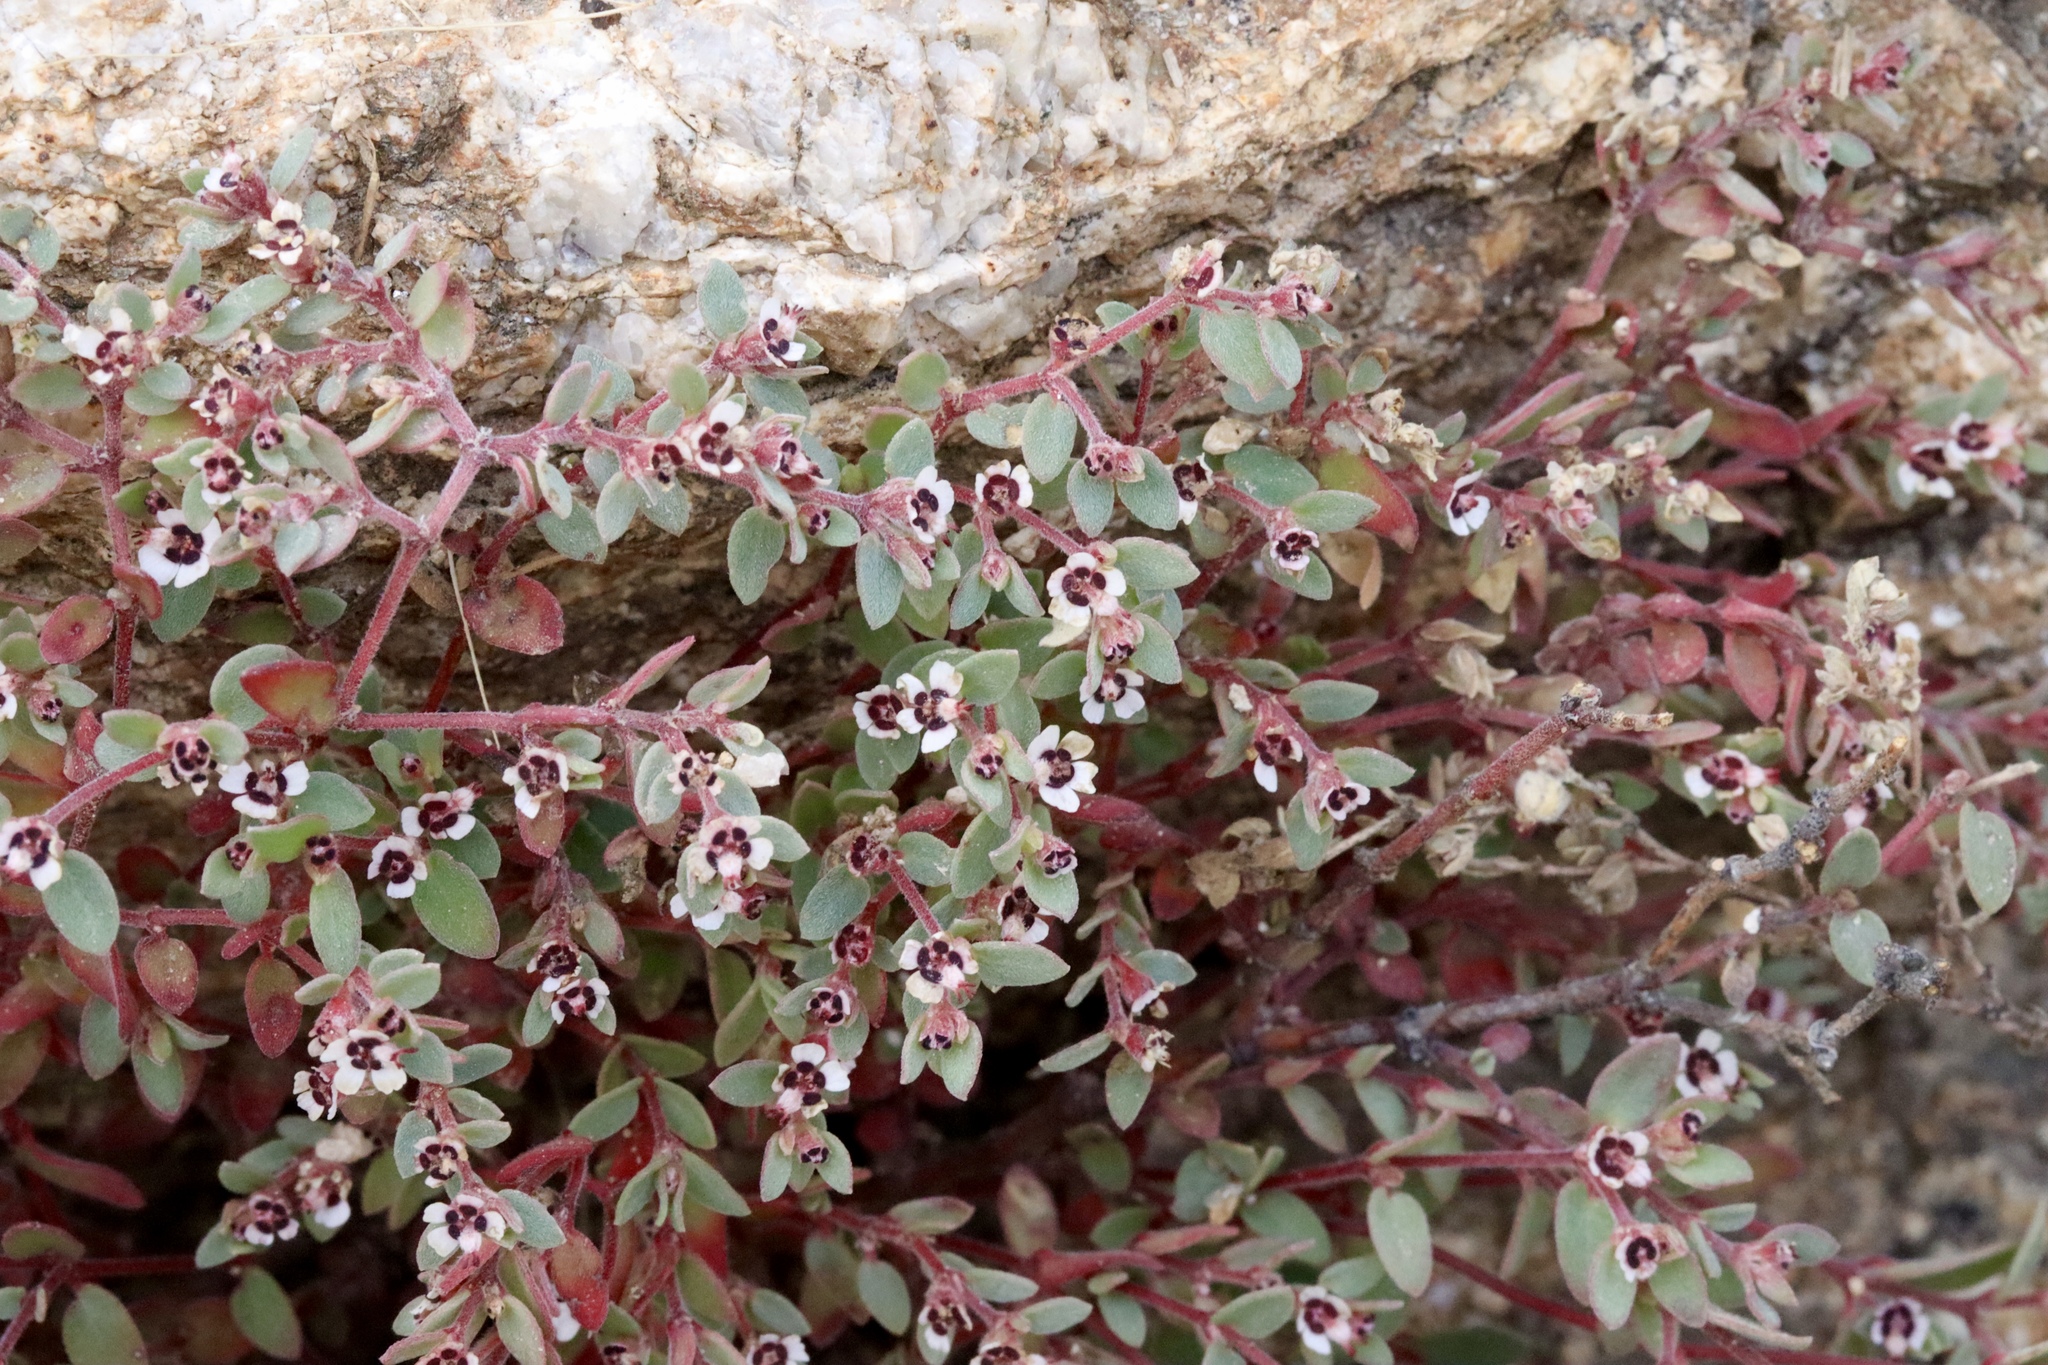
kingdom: Plantae
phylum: Tracheophyta
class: Magnoliopsida
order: Malpighiales
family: Euphorbiaceae
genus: Euphorbia
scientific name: Euphorbia melanadenia
